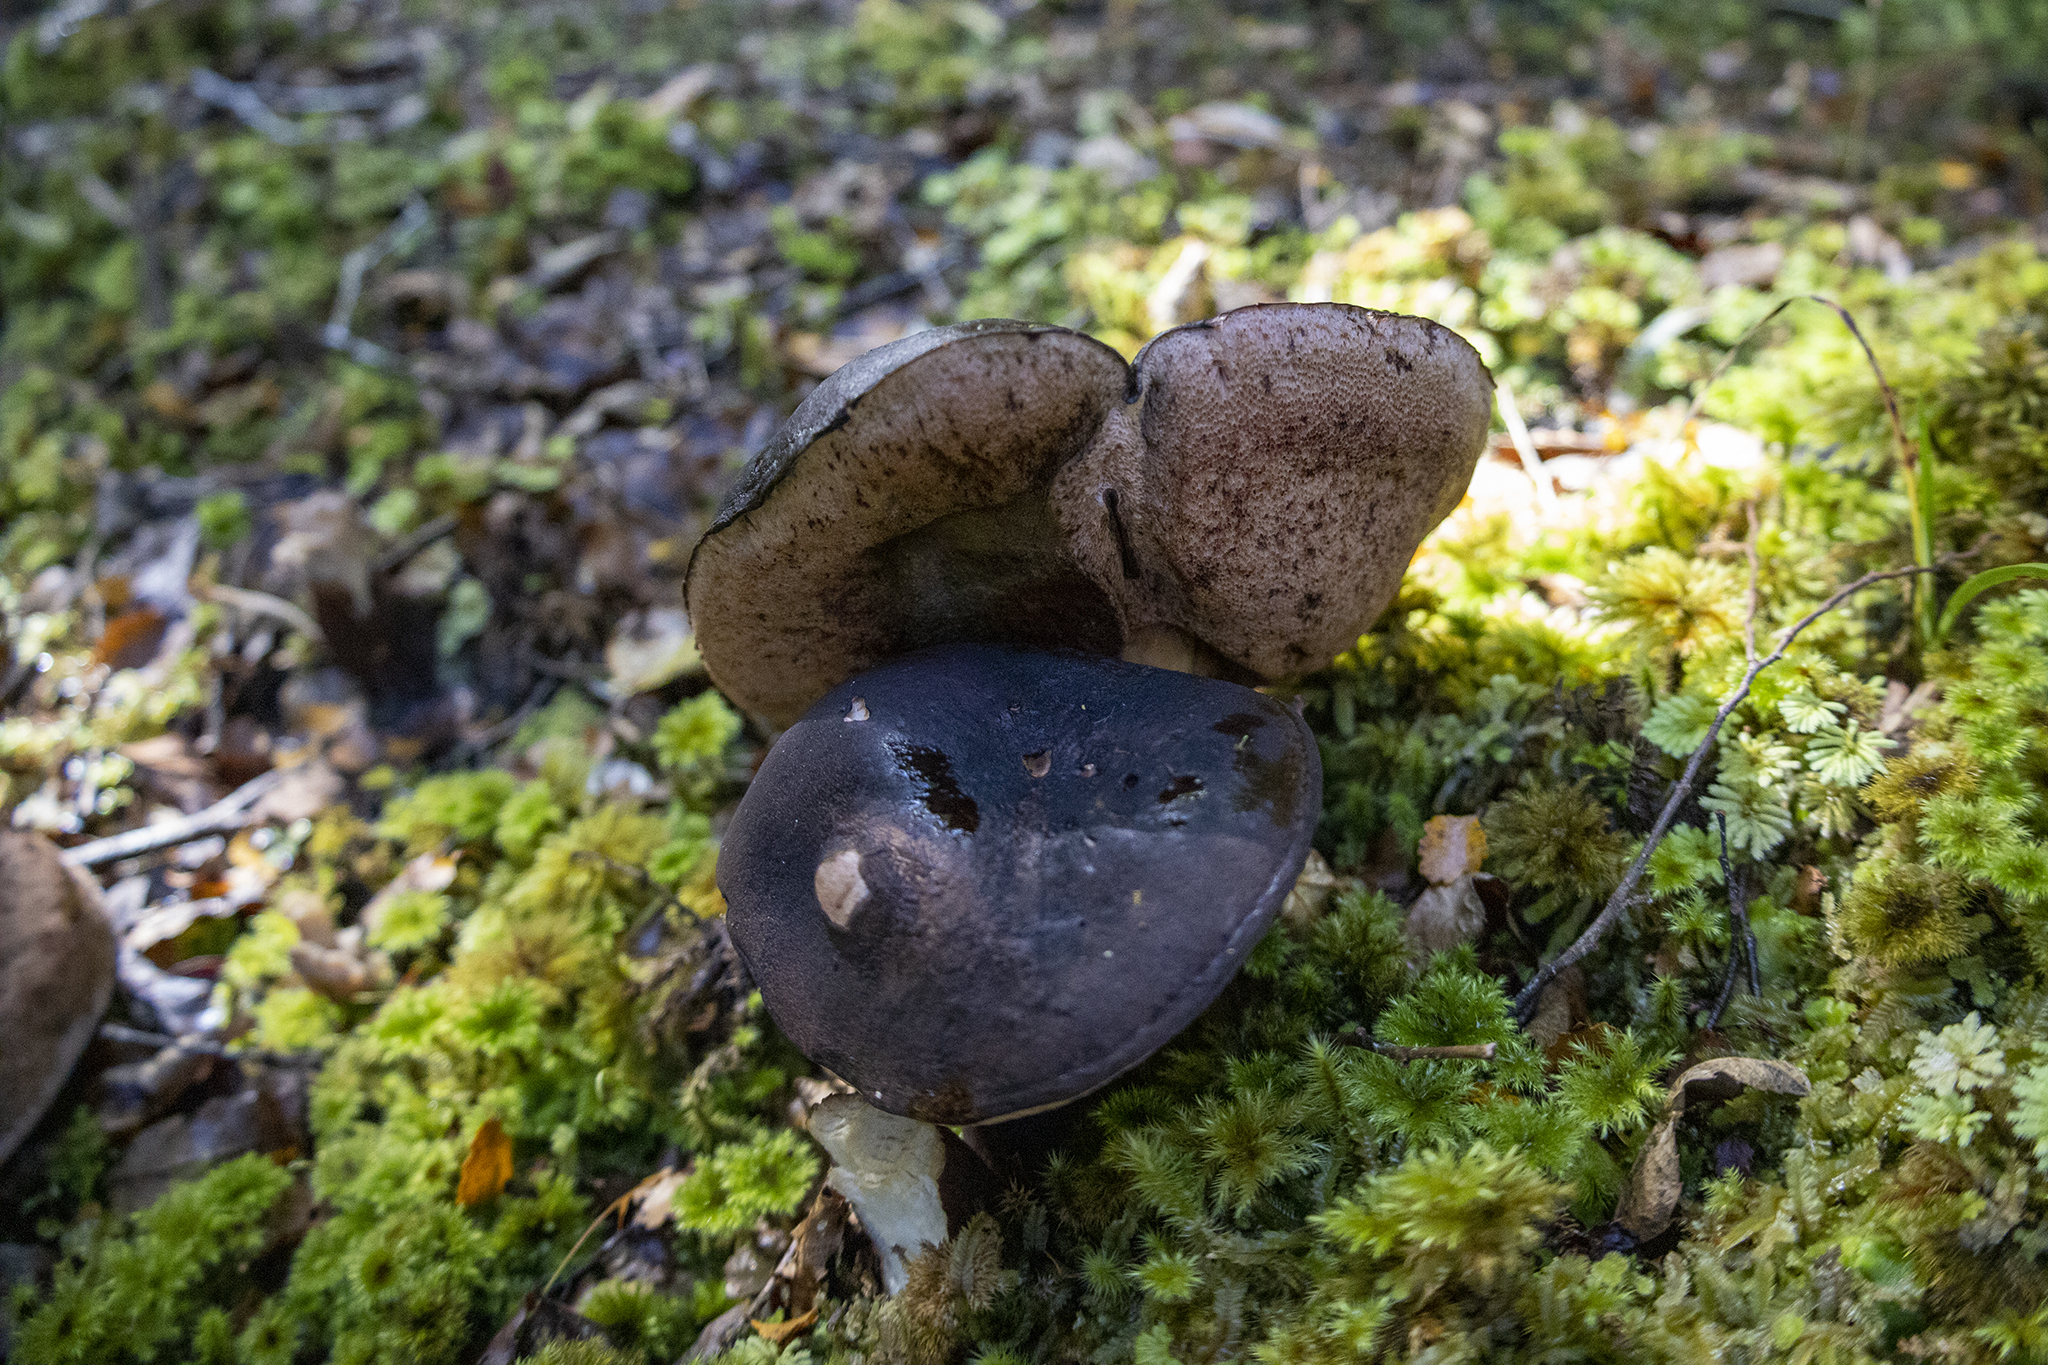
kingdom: Fungi
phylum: Basidiomycota
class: Agaricomycetes
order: Boletales
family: Boletaceae
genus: Porphyrellus
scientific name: Porphyrellus formosus
